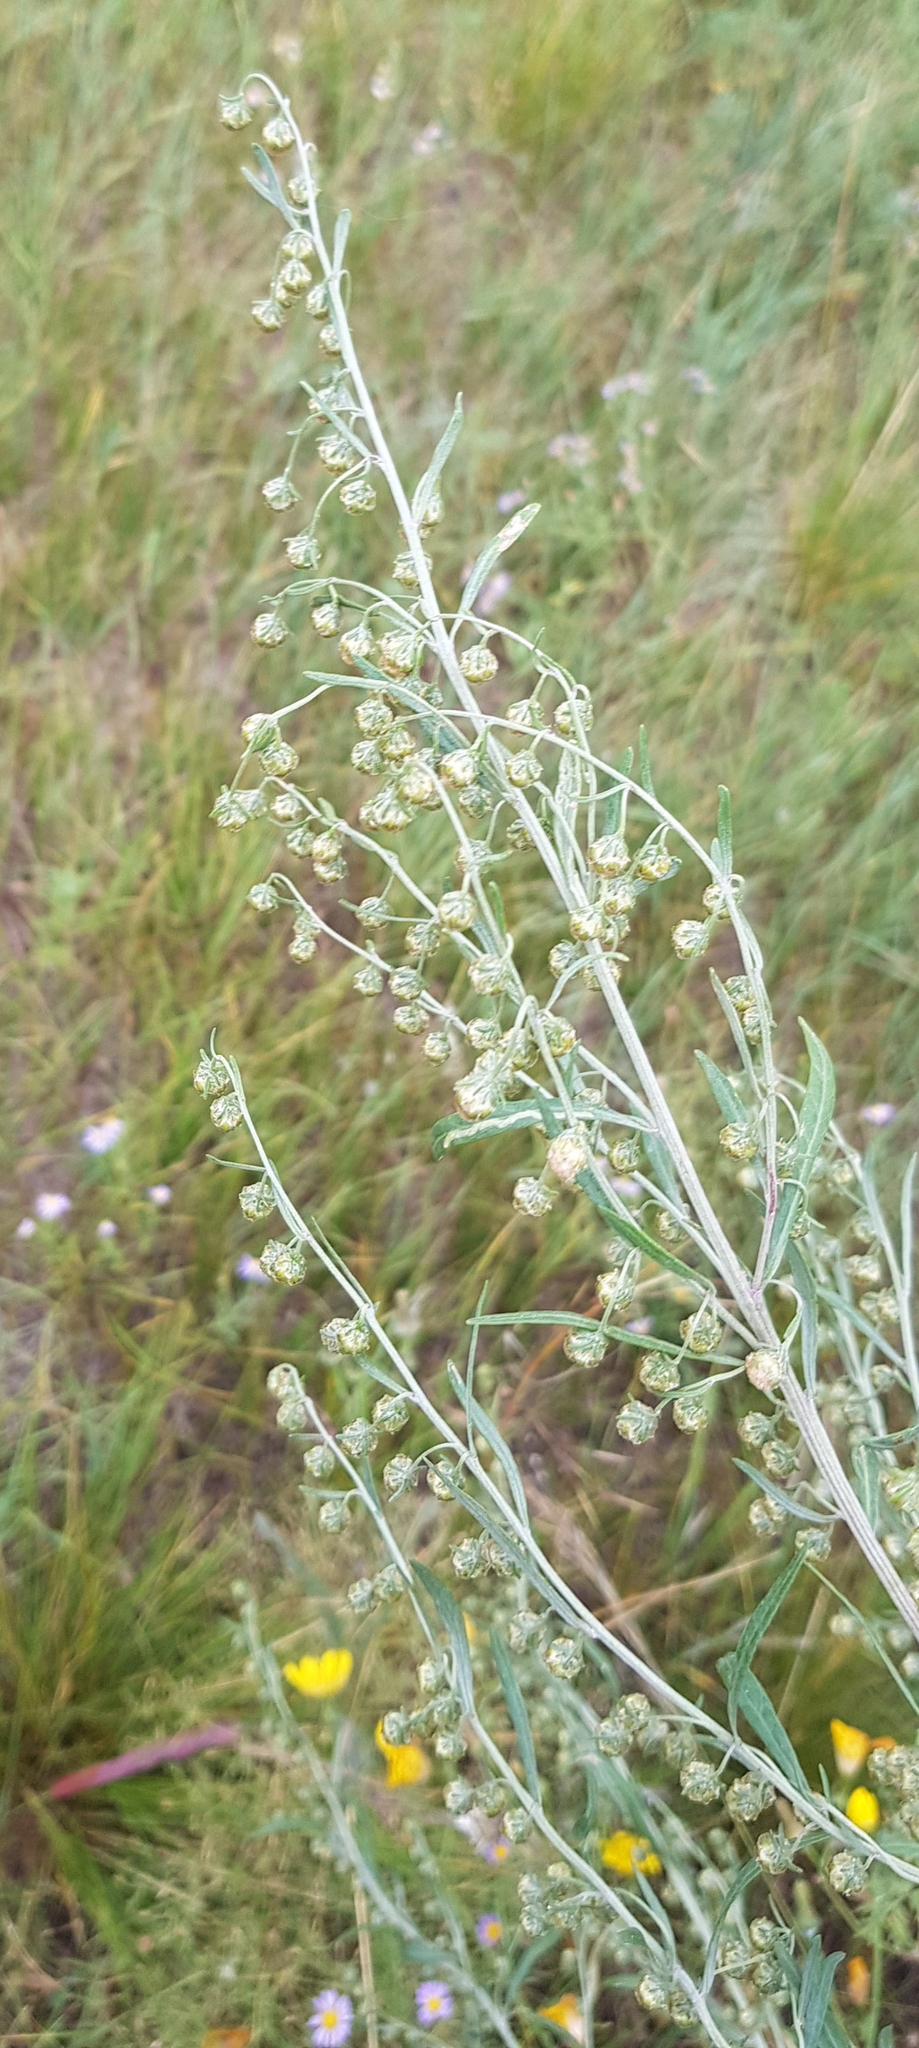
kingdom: Plantae
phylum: Tracheophyta
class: Magnoliopsida
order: Asterales
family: Asteraceae
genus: Artemisia
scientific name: Artemisia macrocephala
